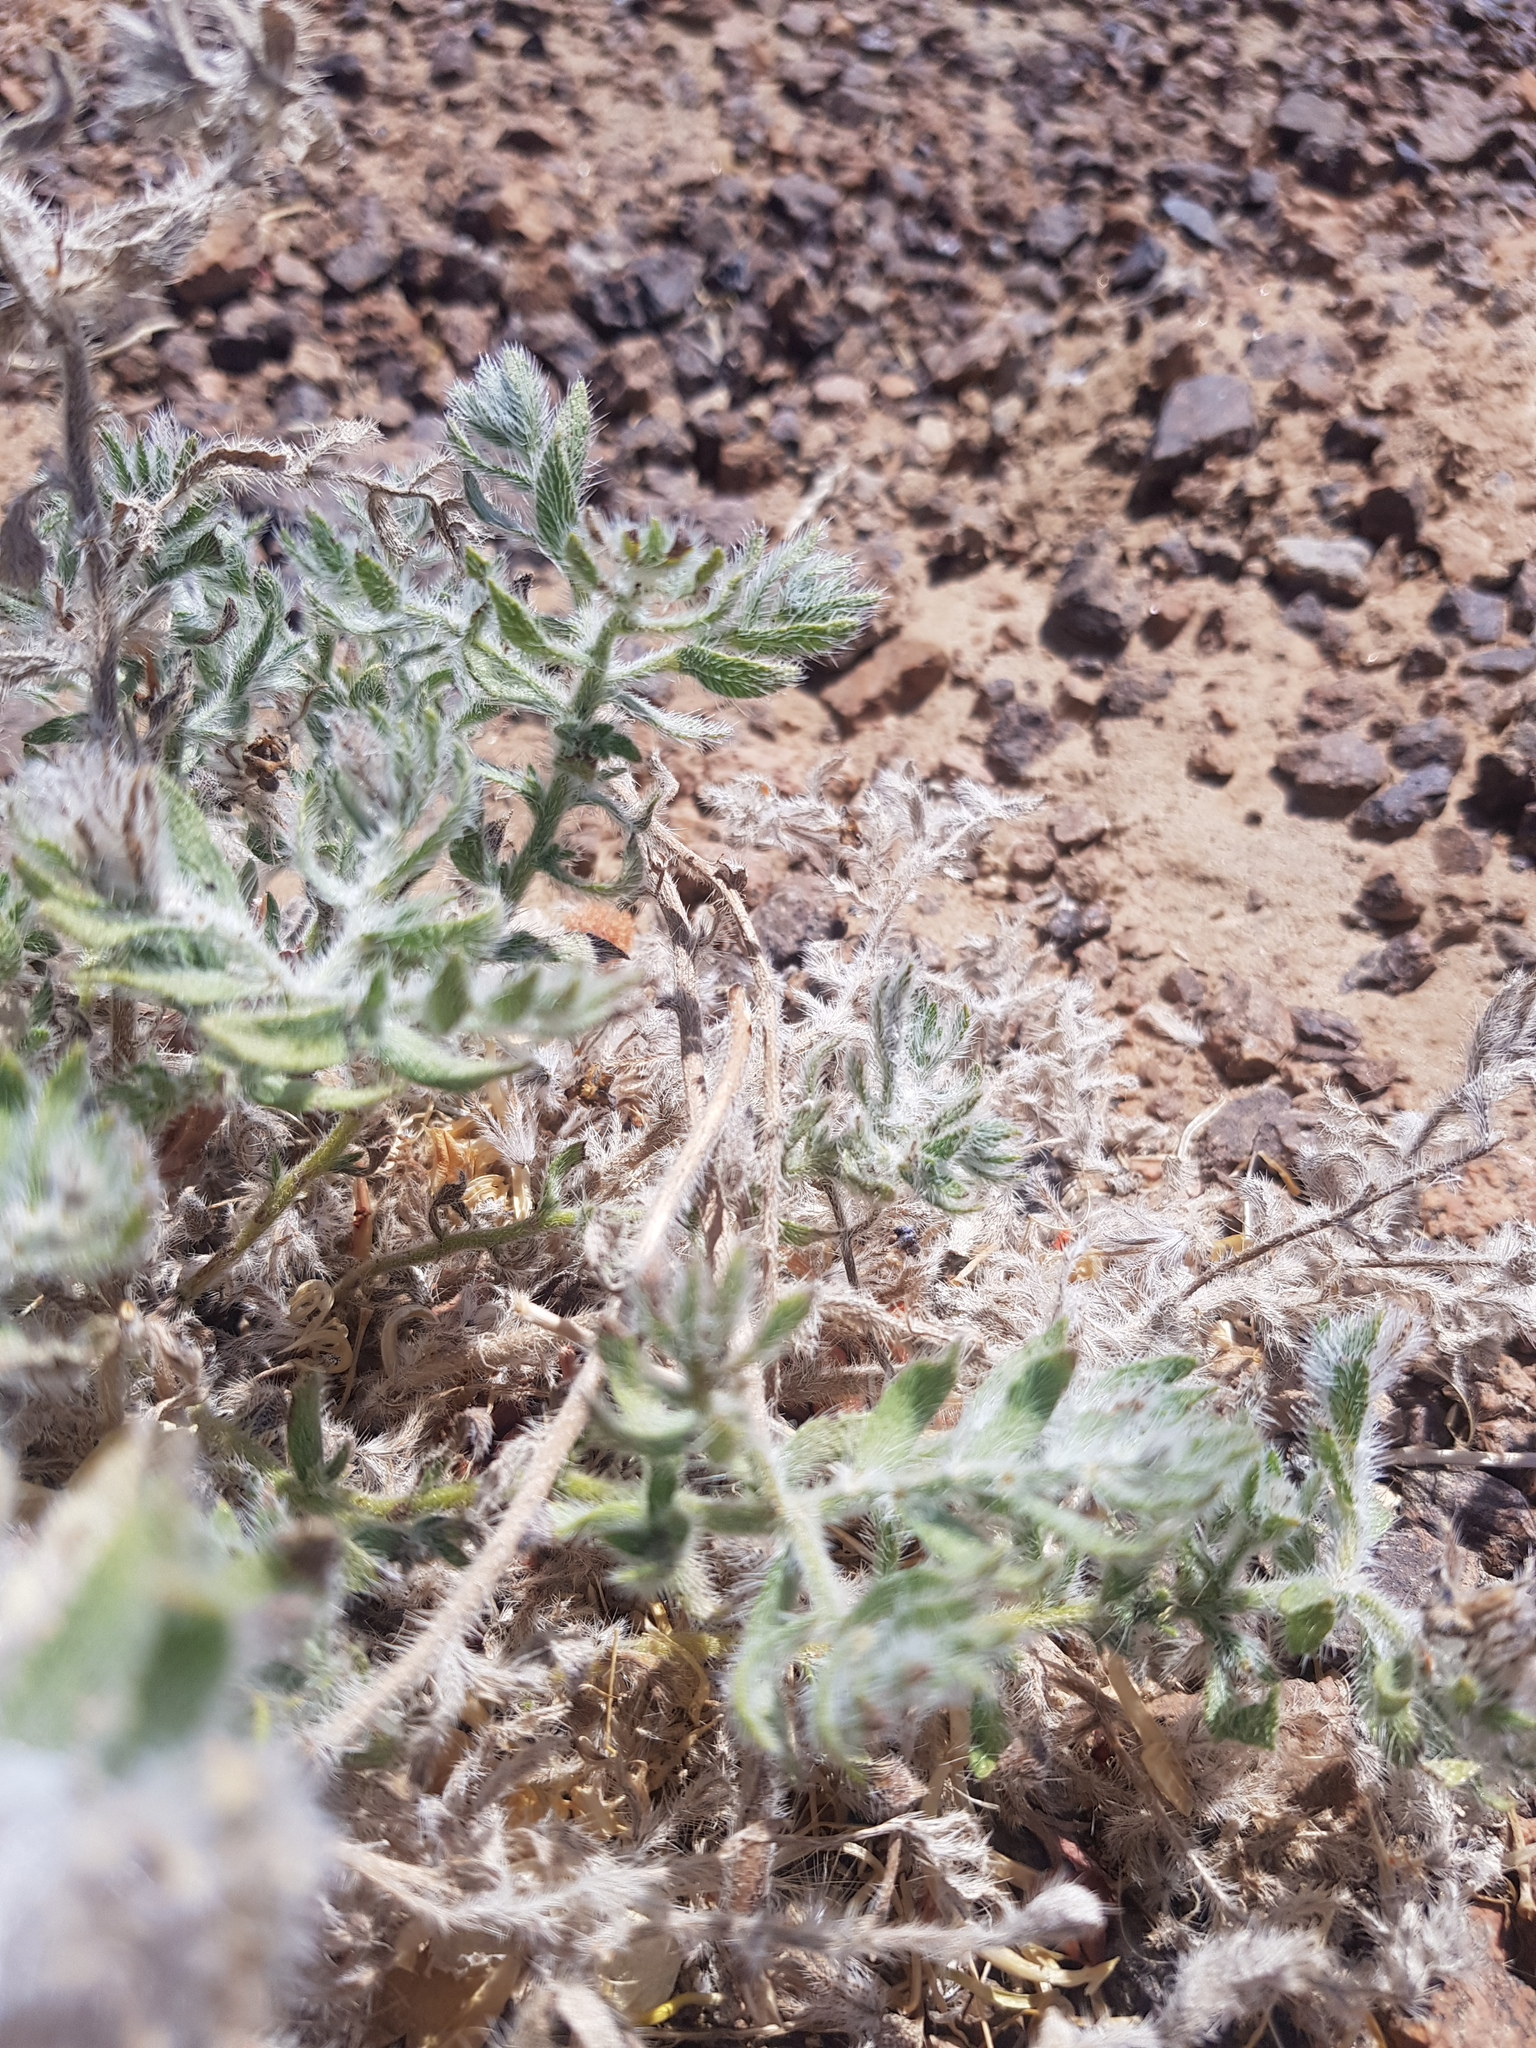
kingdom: Plantae
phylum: Tracheophyta
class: Magnoliopsida
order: Boraginales
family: Boraginaceae
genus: Arnebia
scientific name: Arnebia fimbriata
